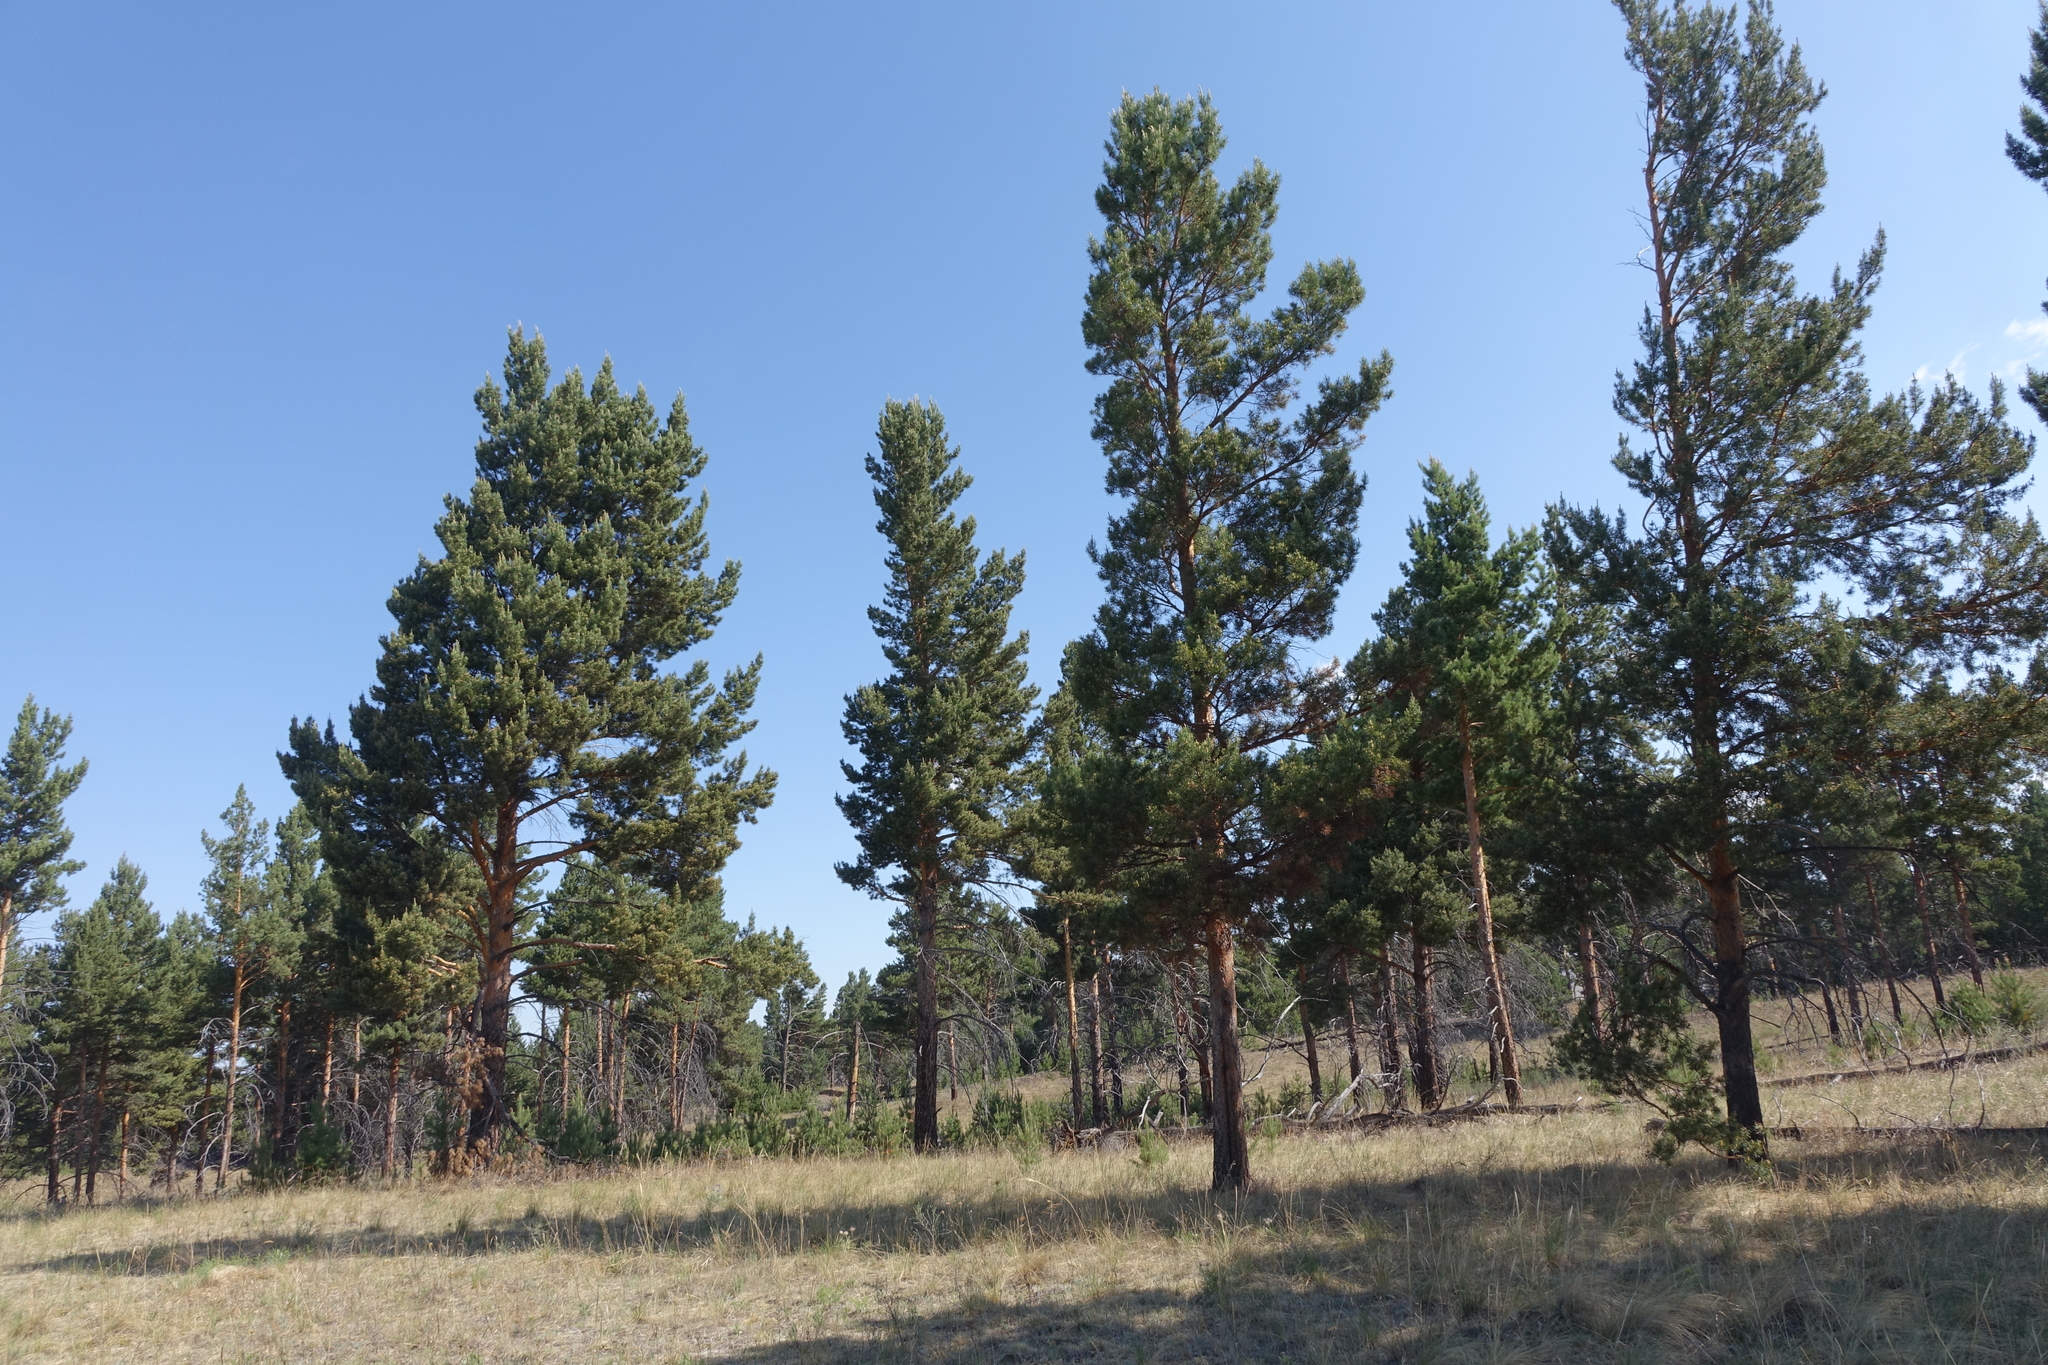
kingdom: Plantae
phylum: Tracheophyta
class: Pinopsida
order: Pinales
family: Pinaceae
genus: Pinus
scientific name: Pinus sylvestris
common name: Scots pine
